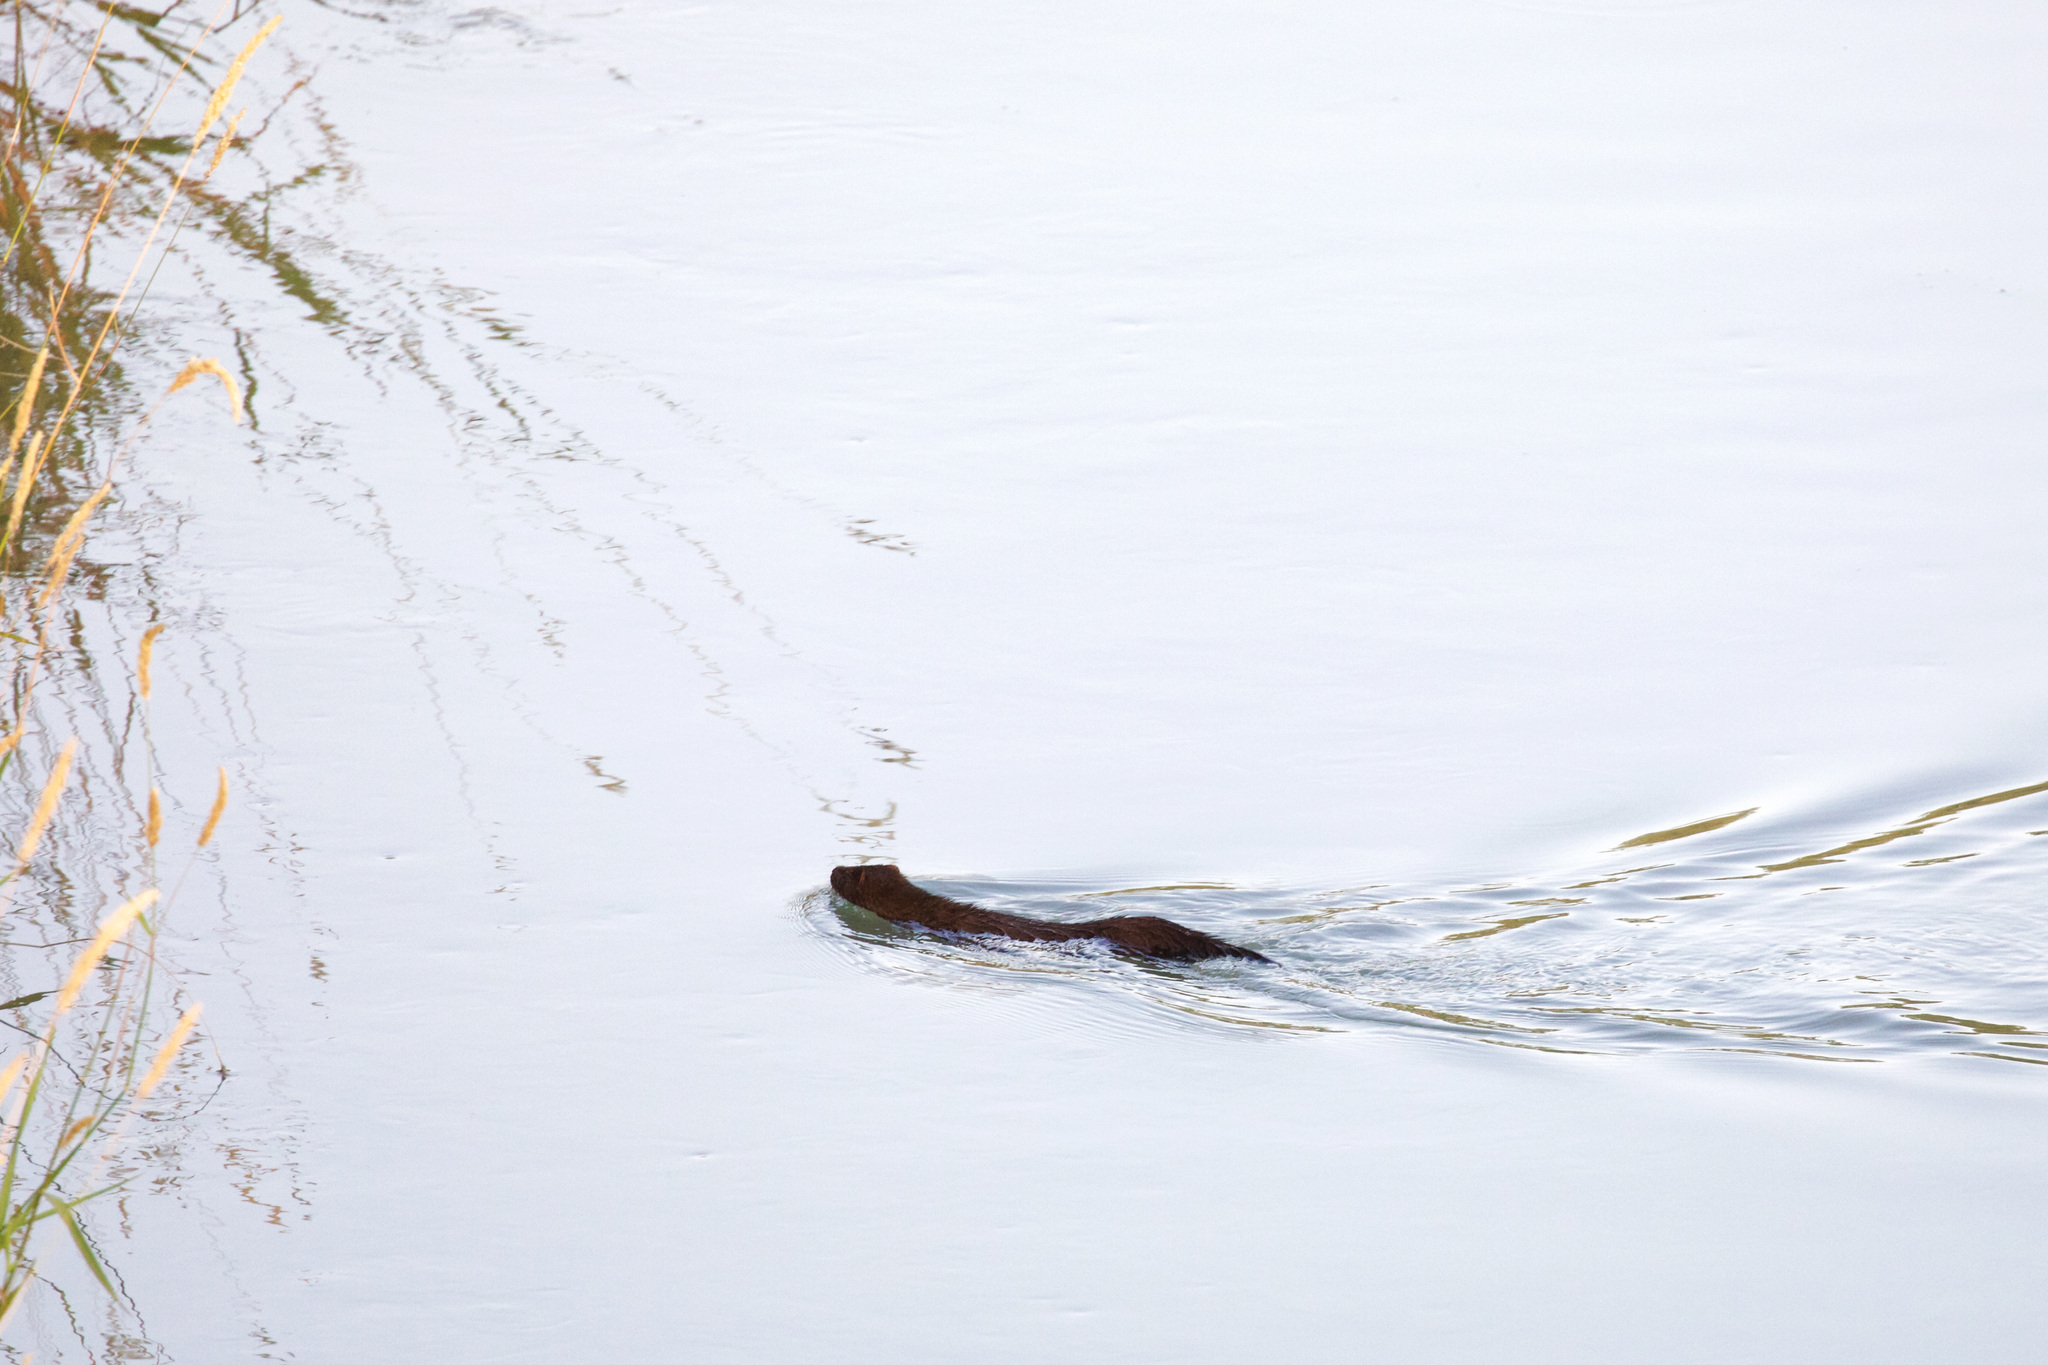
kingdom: Animalia
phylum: Chordata
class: Mammalia
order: Carnivora
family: Mustelidae
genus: Mustela
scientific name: Mustela
